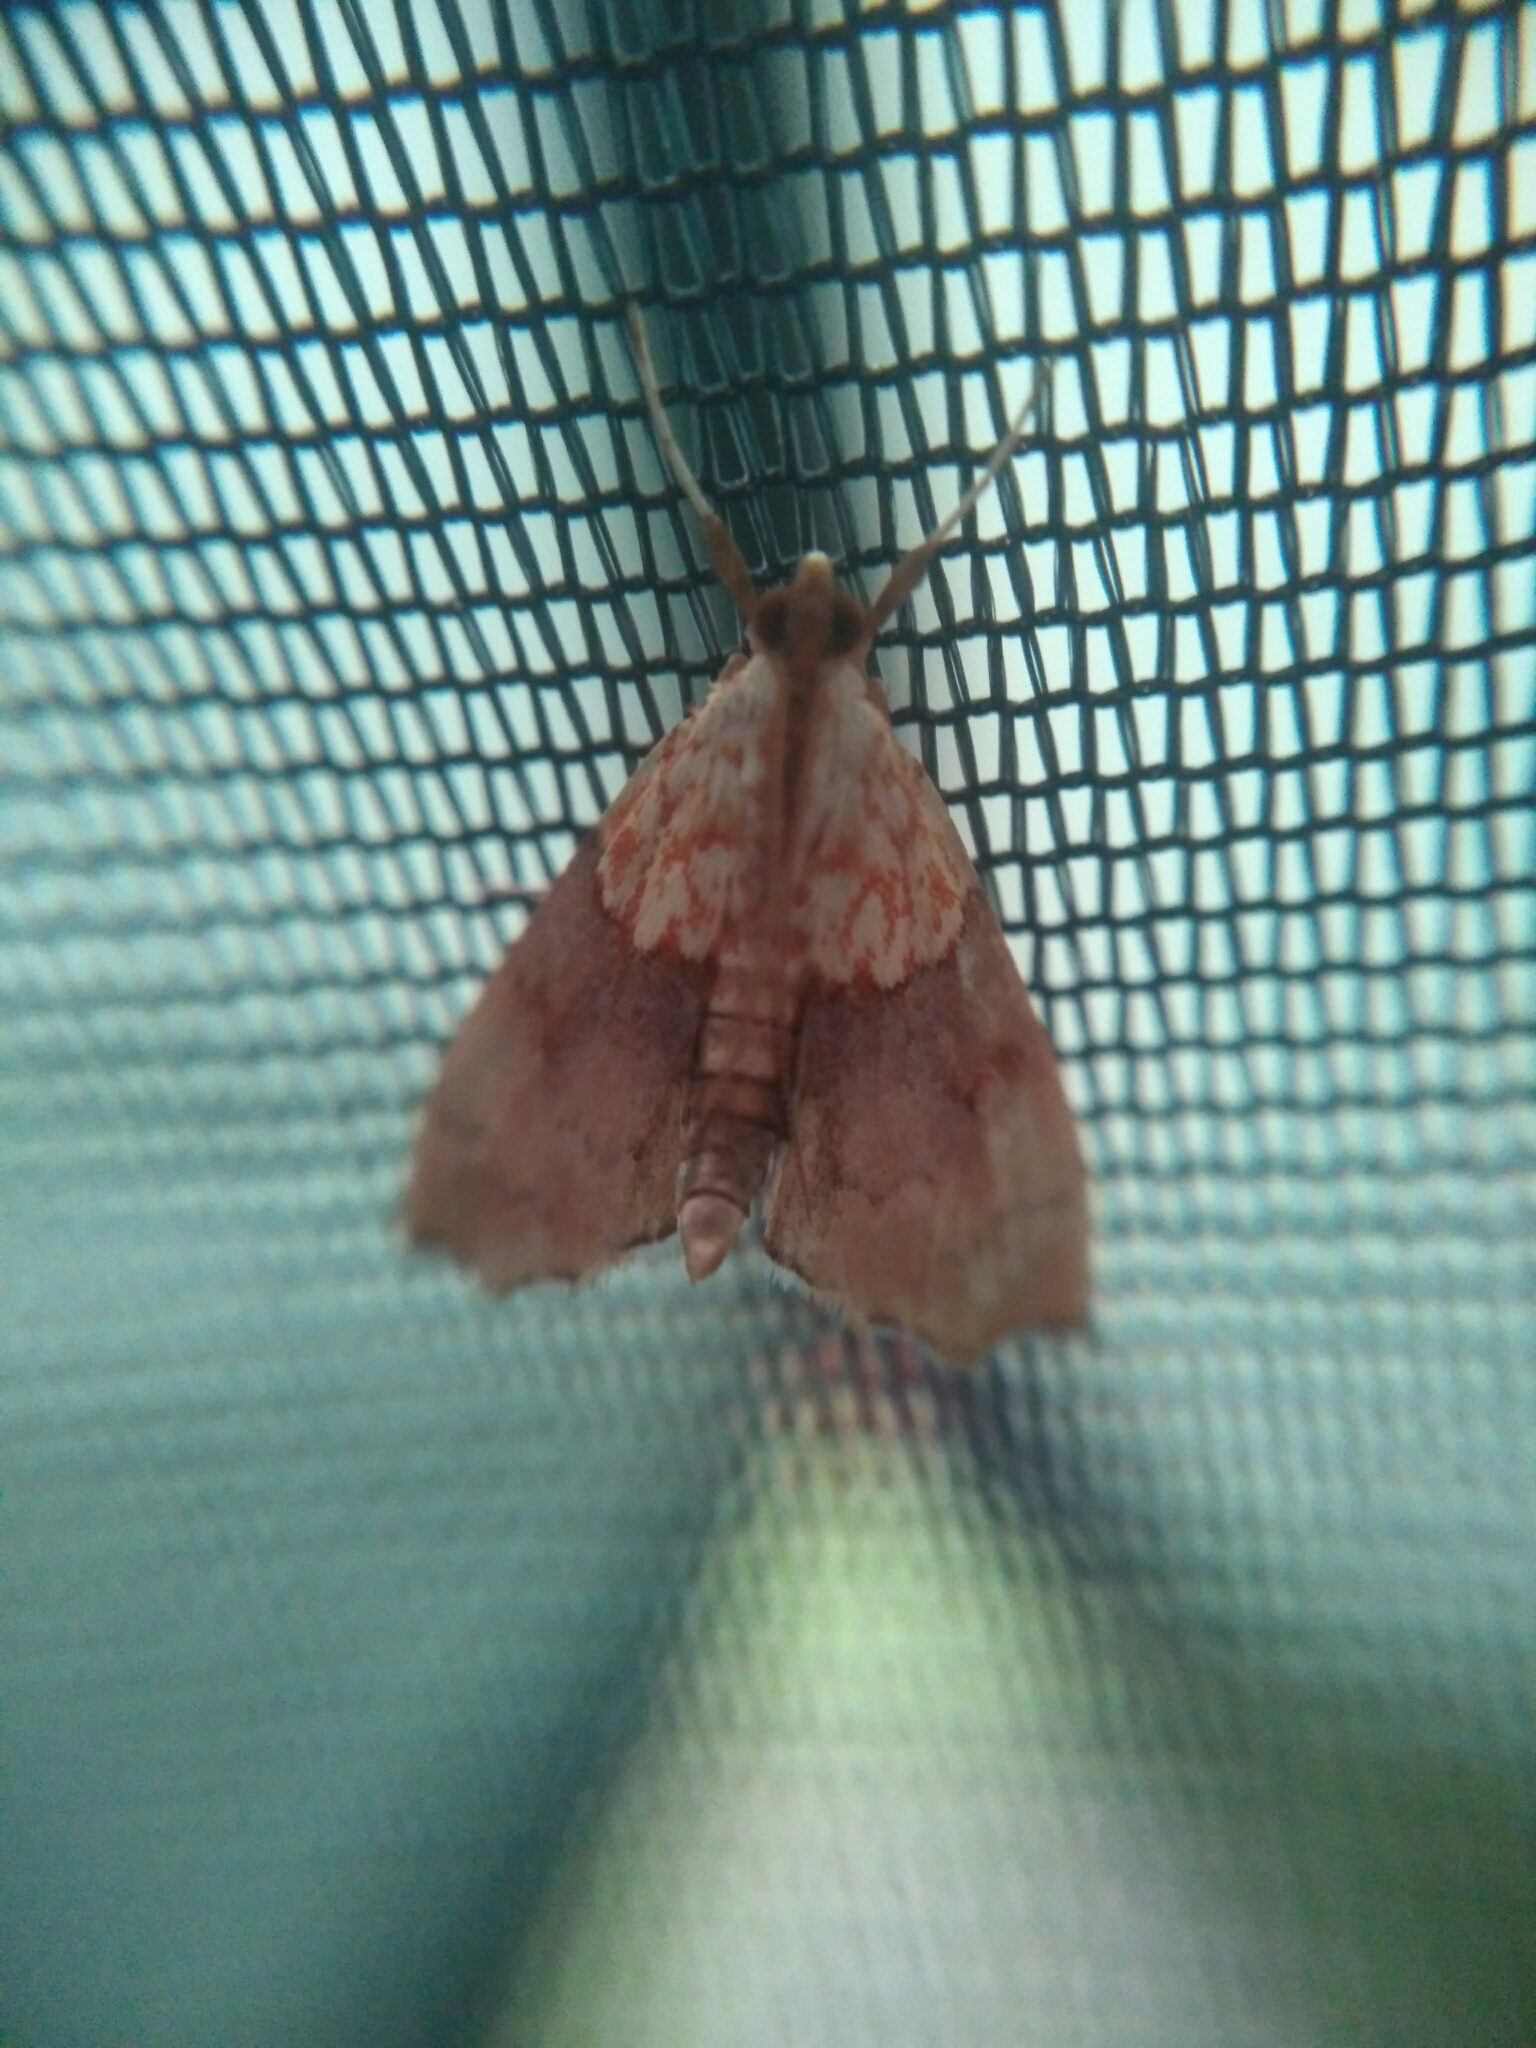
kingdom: Animalia
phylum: Arthropoda
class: Insecta
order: Lepidoptera
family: Crambidae
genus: Agrotera
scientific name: Agrotera nemoralis
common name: Beautiful pearl
